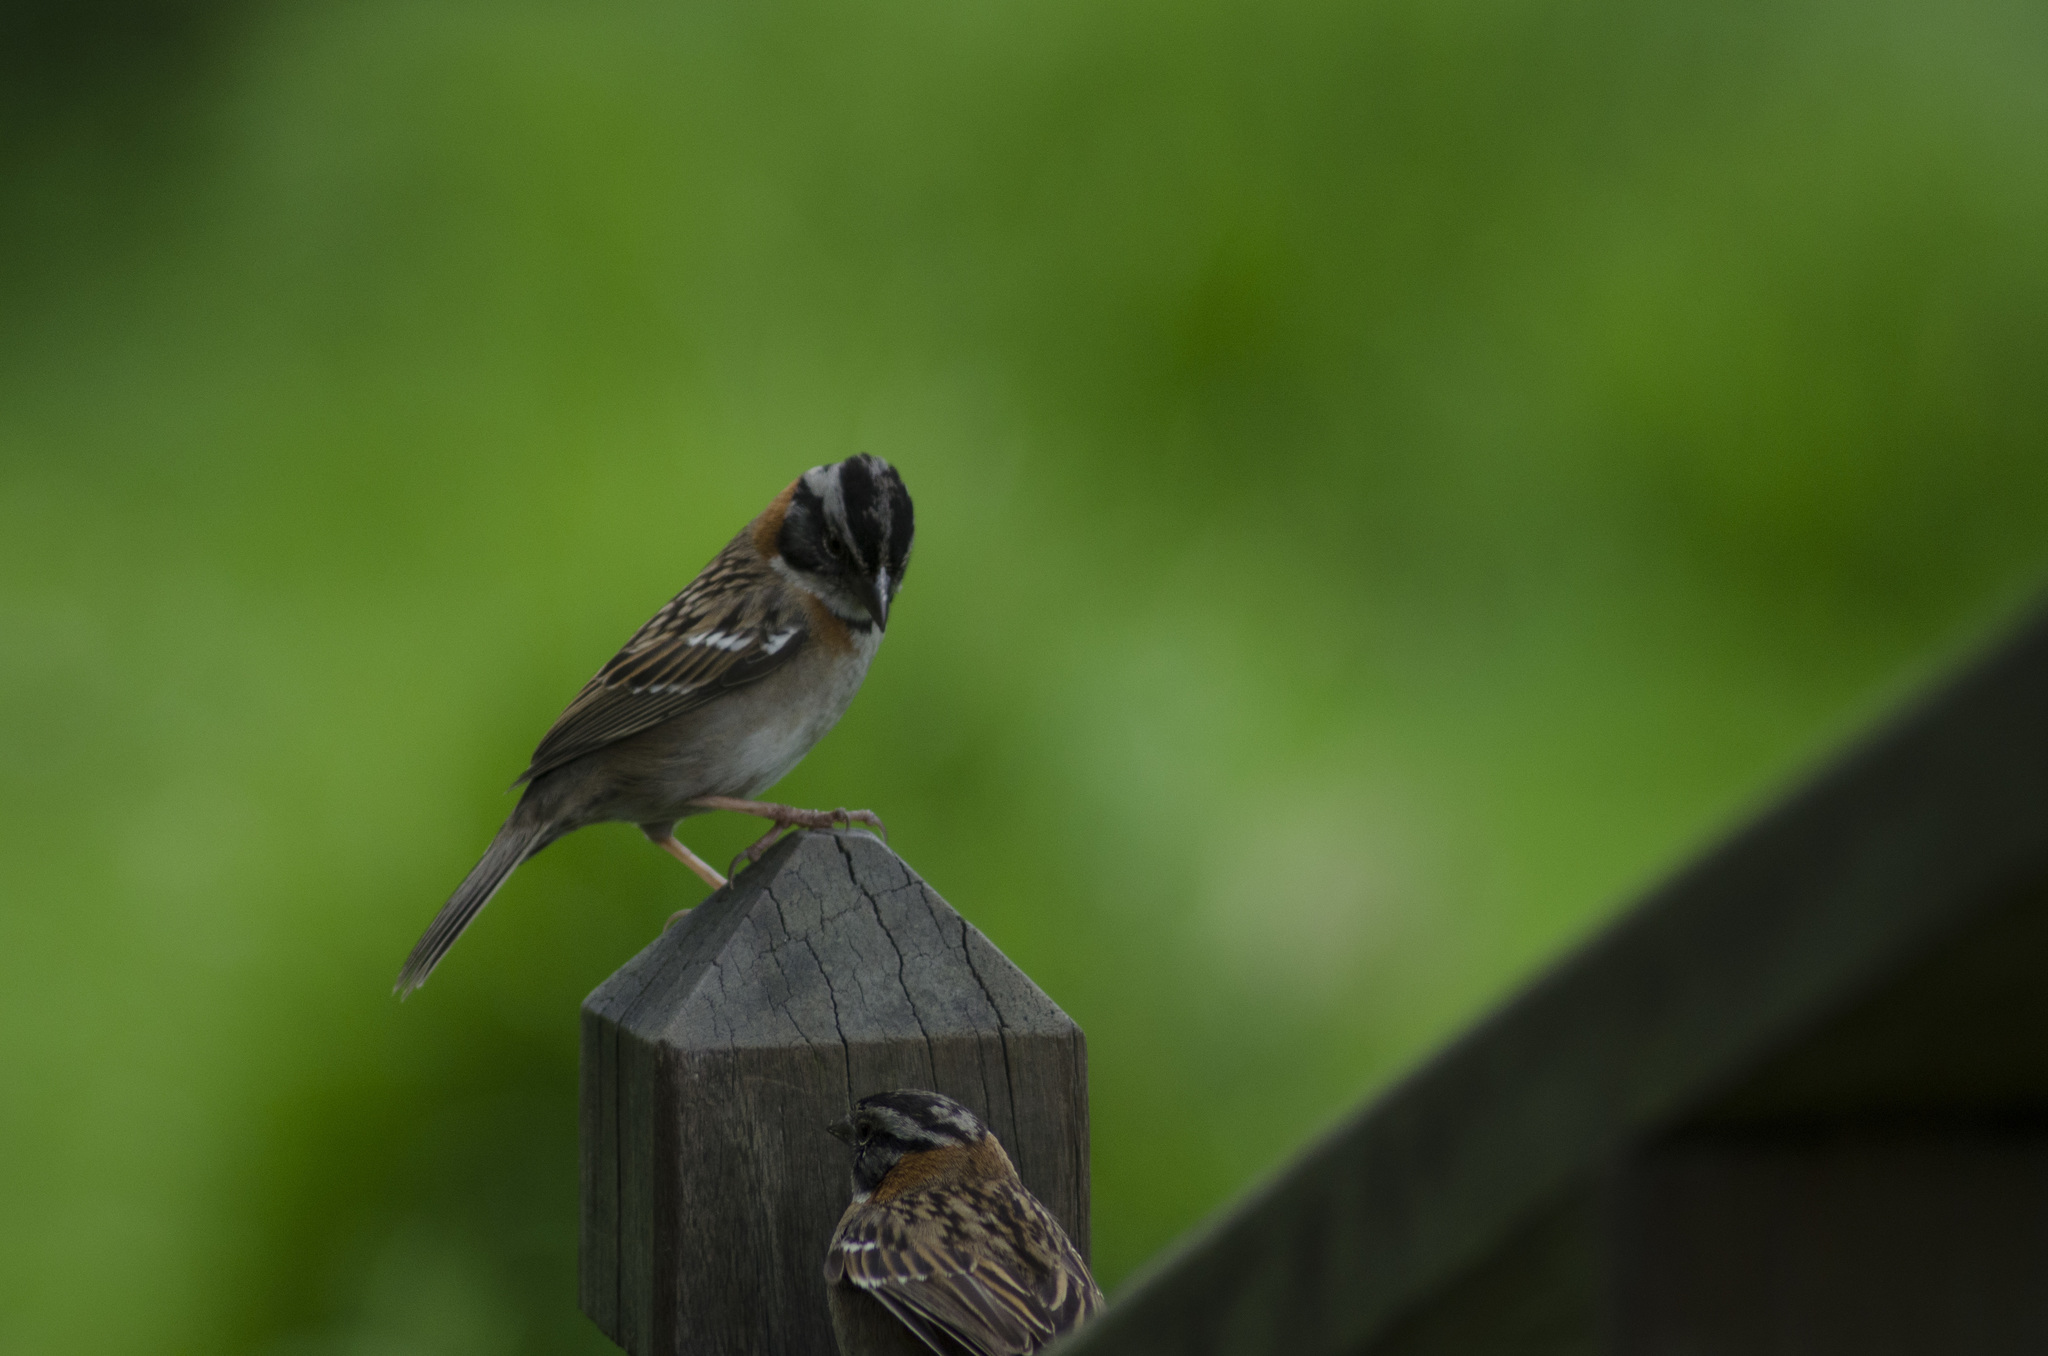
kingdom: Animalia
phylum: Chordata
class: Aves
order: Passeriformes
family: Passerellidae
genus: Zonotrichia
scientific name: Zonotrichia capensis
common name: Rufous-collared sparrow
